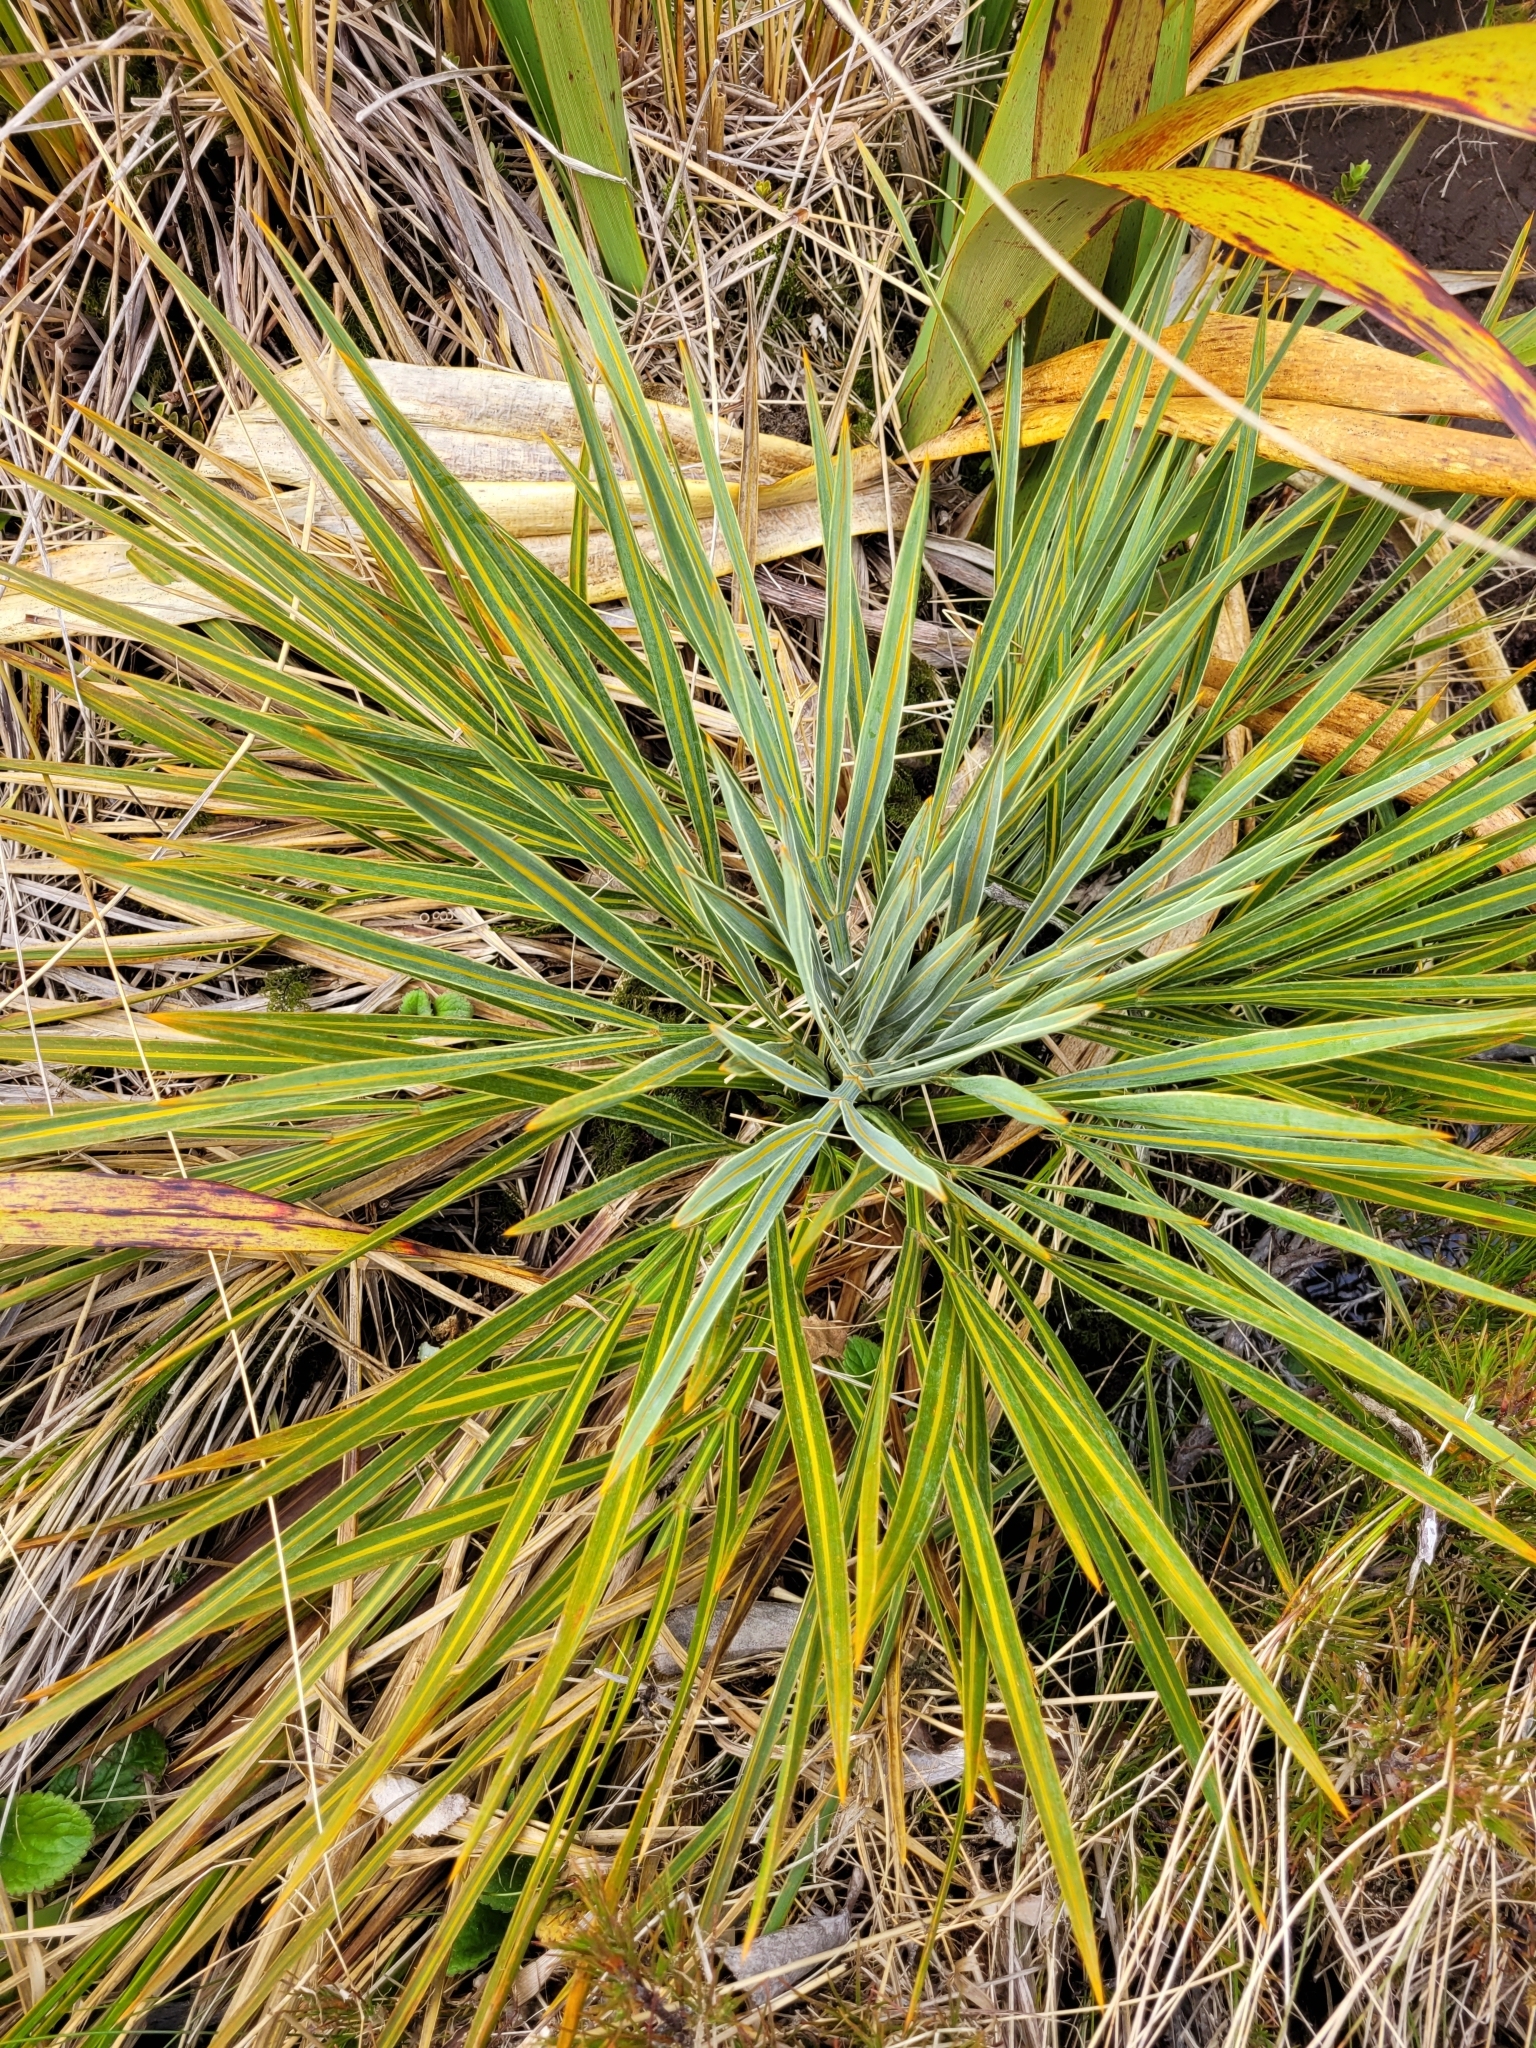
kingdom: Plantae
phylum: Tracheophyta
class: Magnoliopsida
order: Apiales
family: Apiaceae
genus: Aciphylla
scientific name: Aciphylla colensoi
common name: Colenso's spaniard
